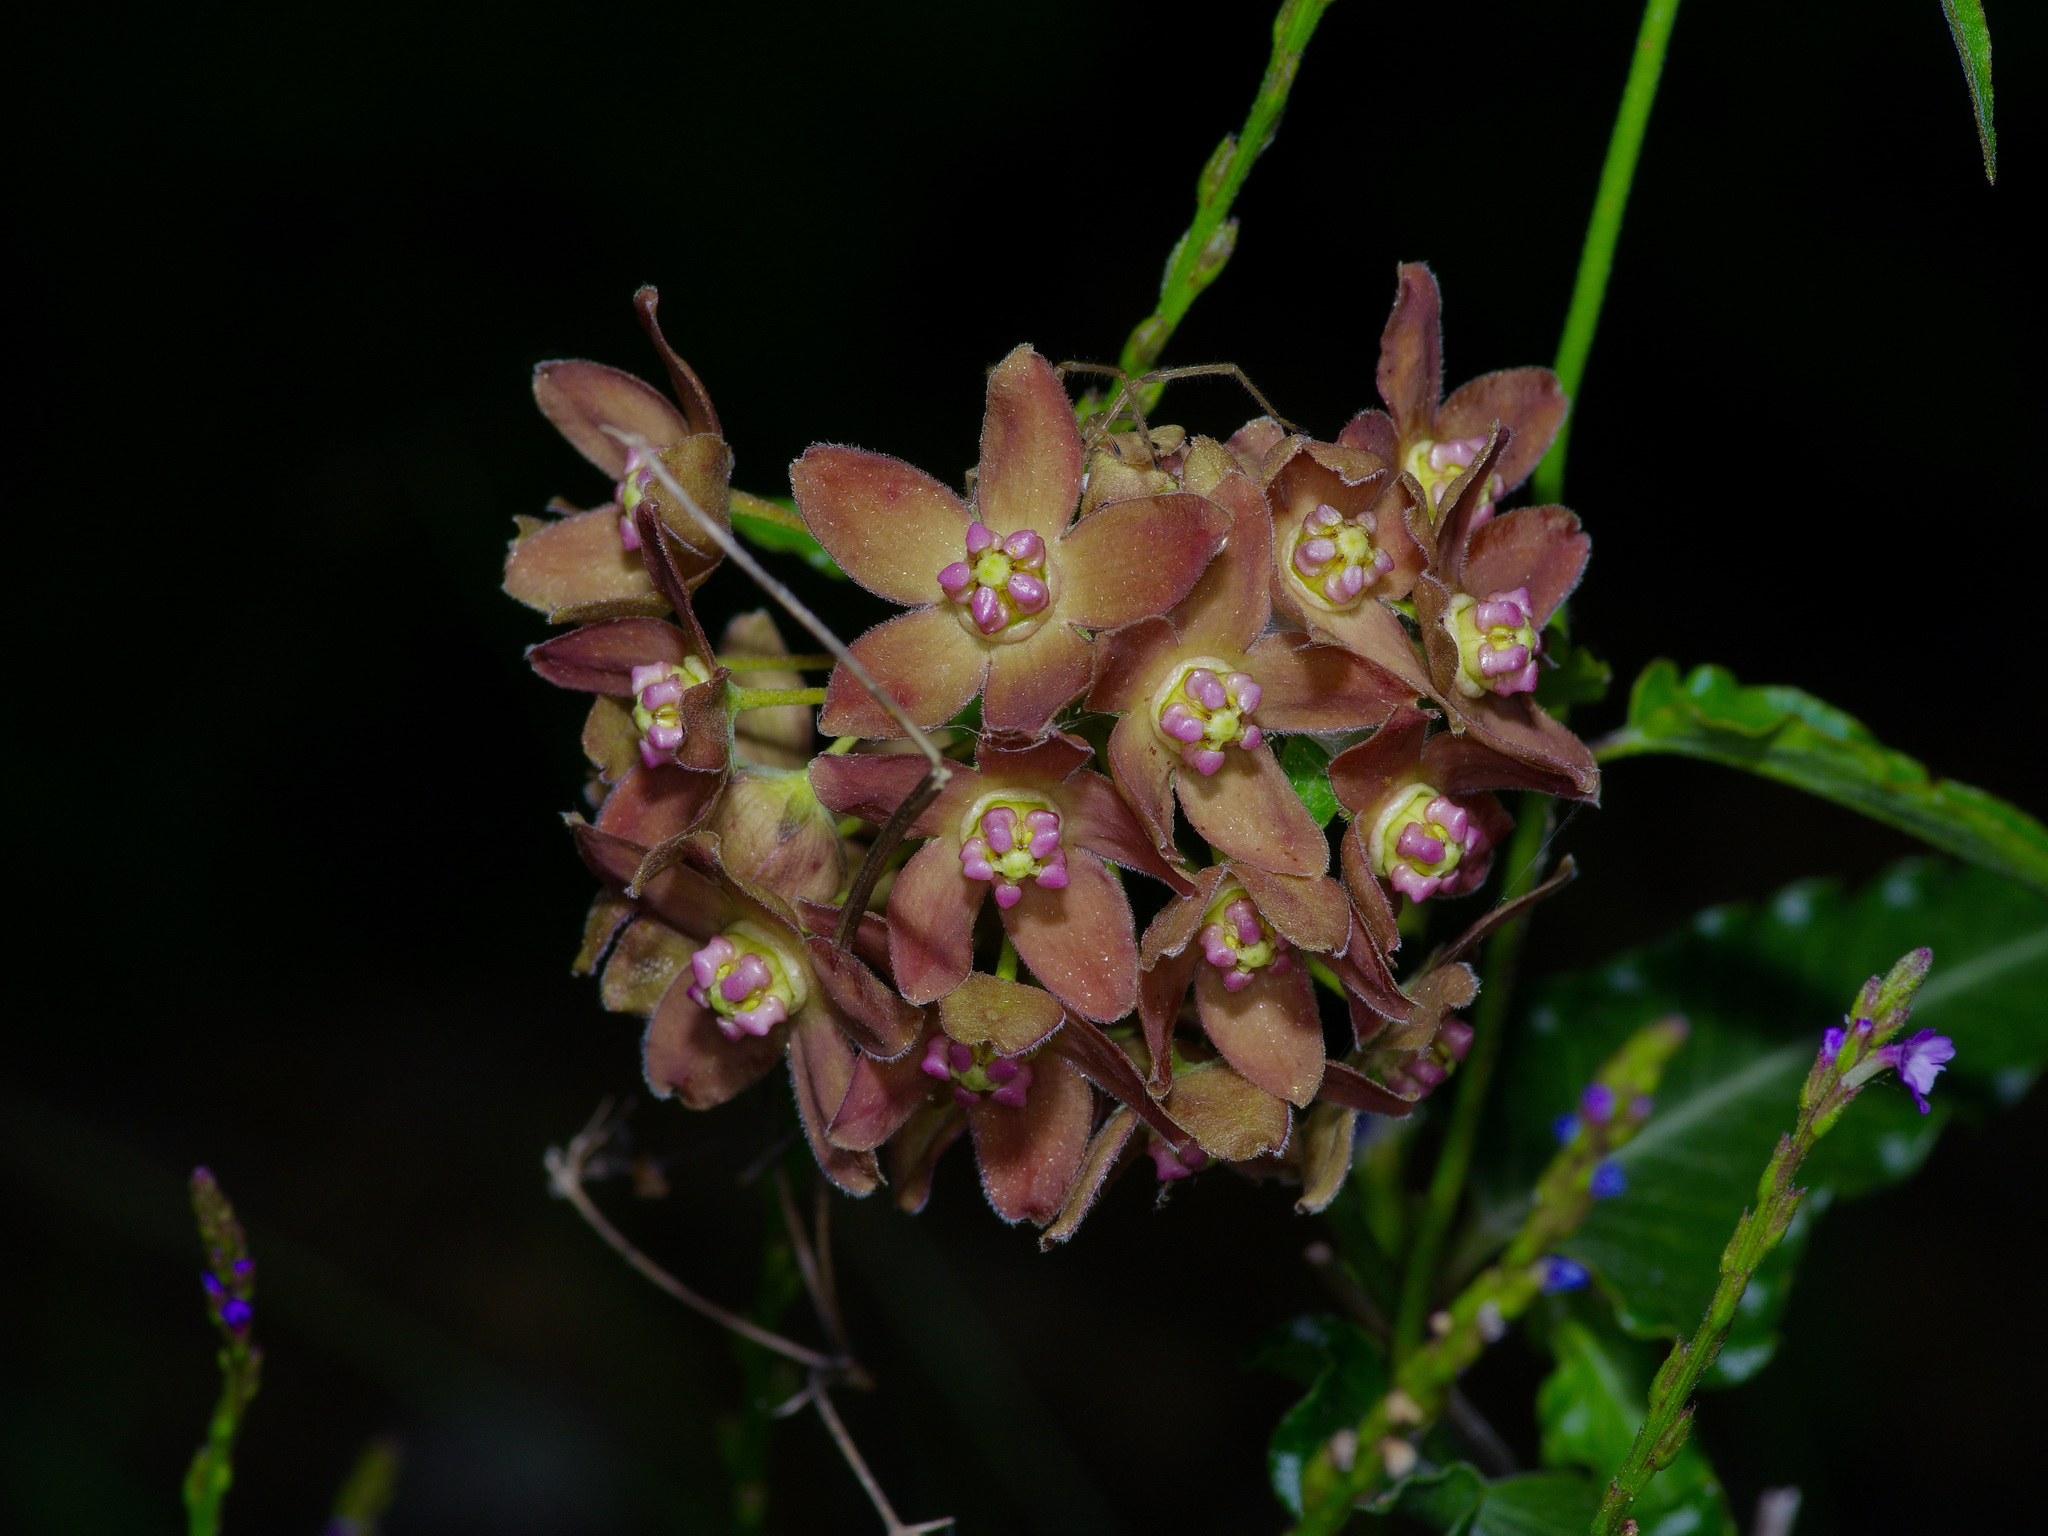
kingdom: Plantae
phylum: Tracheophyta
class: Magnoliopsida
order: Gentianales
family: Apocynaceae
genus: Funastrum
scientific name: Funastrum crispum
